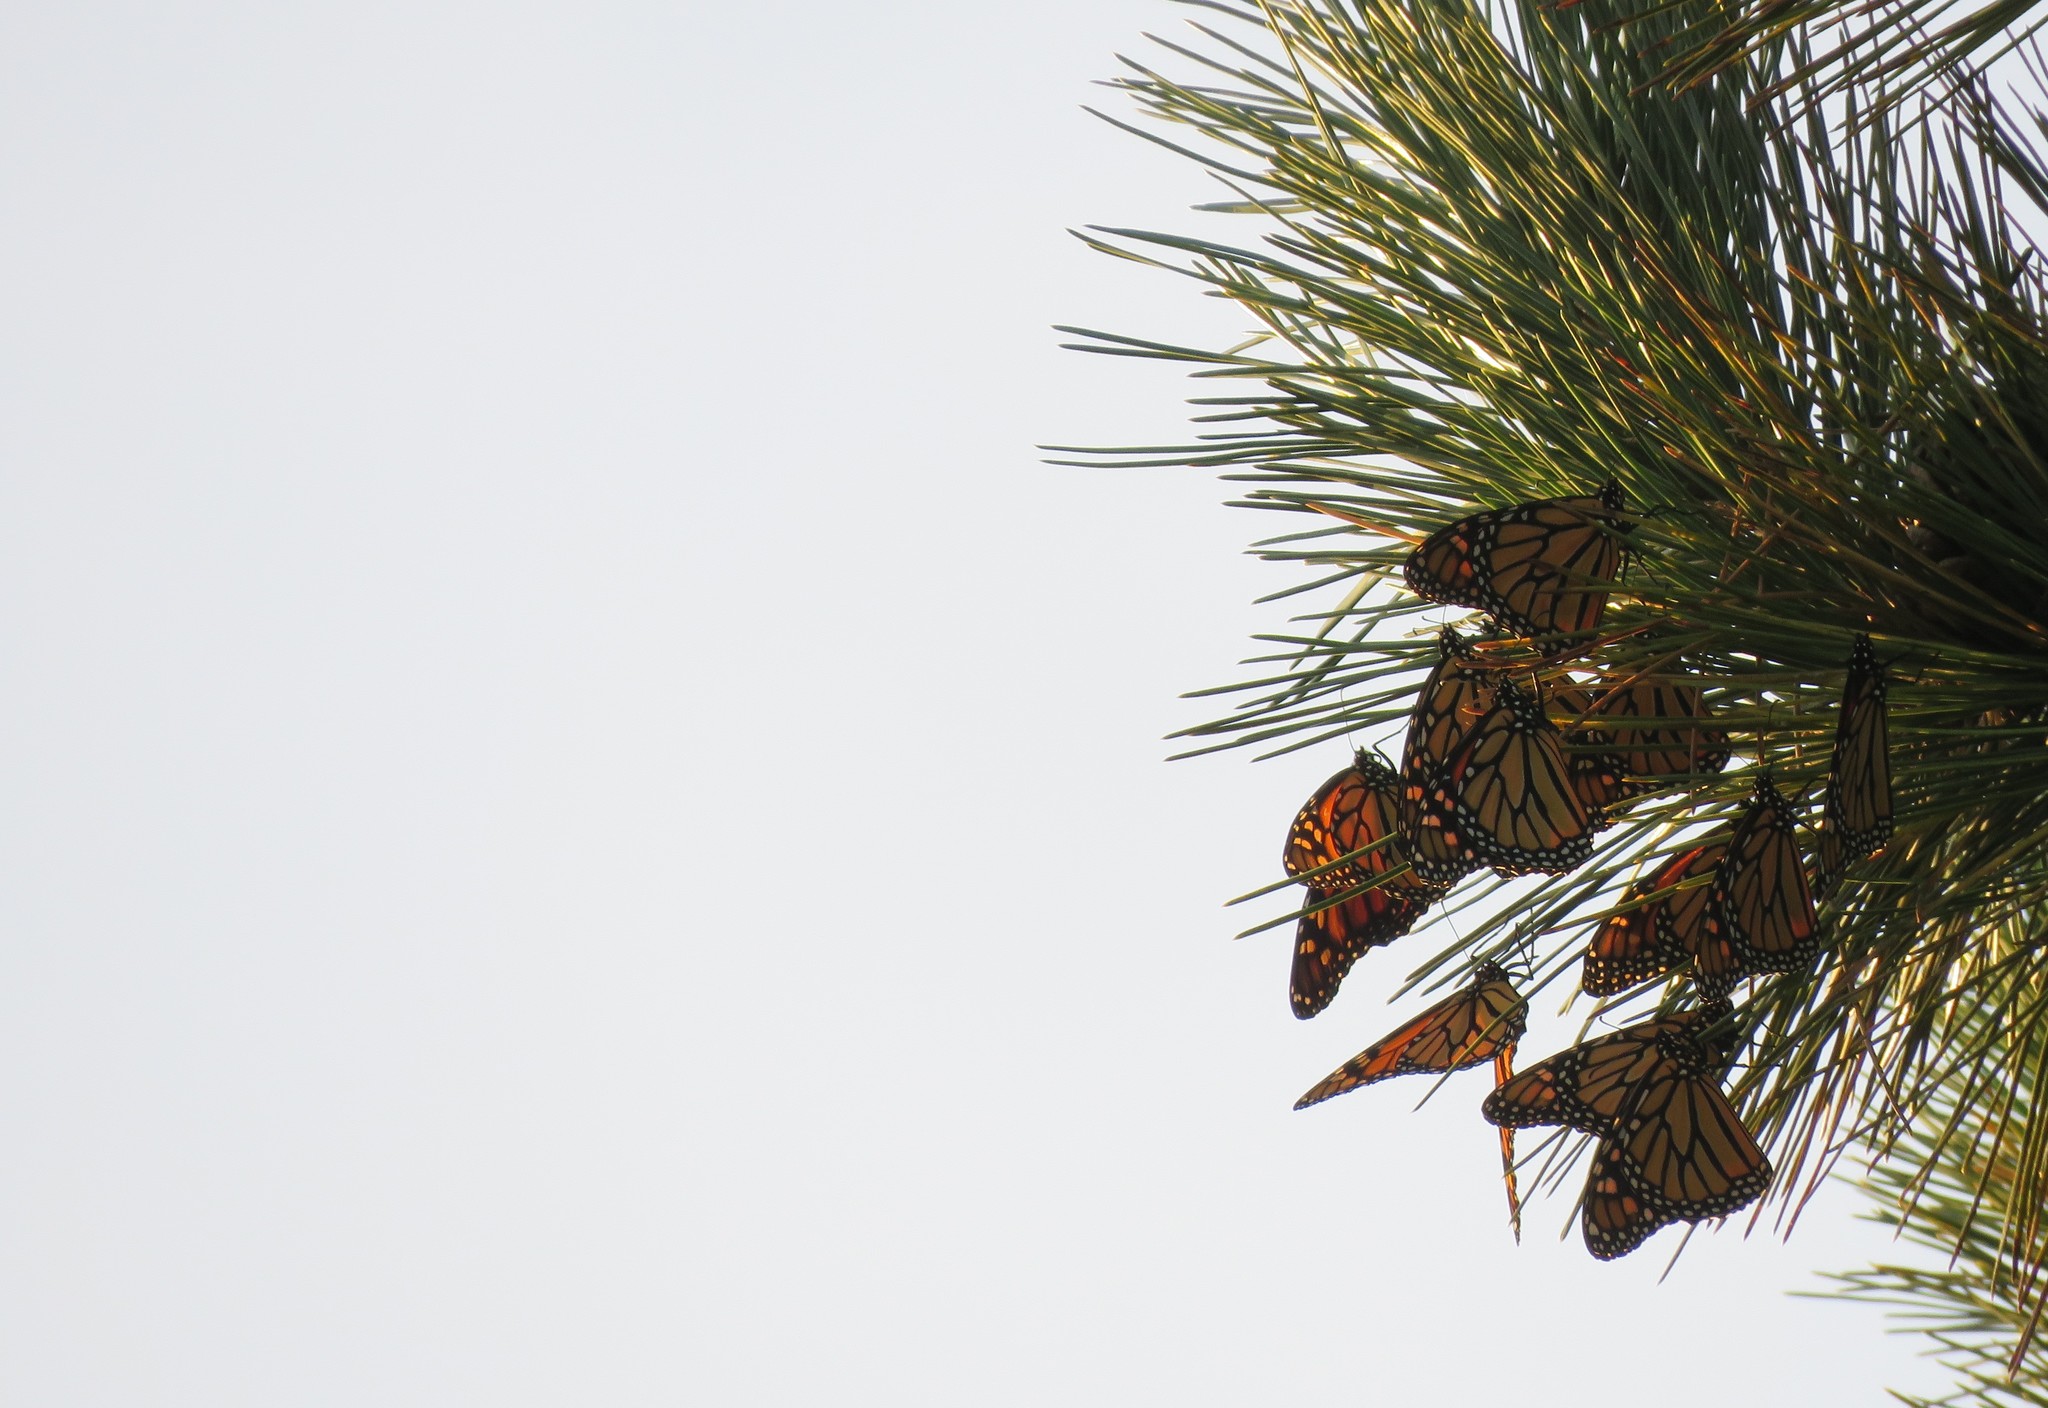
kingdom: Animalia
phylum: Arthropoda
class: Insecta
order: Lepidoptera
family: Nymphalidae
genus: Danaus
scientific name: Danaus plexippus
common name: Monarch
